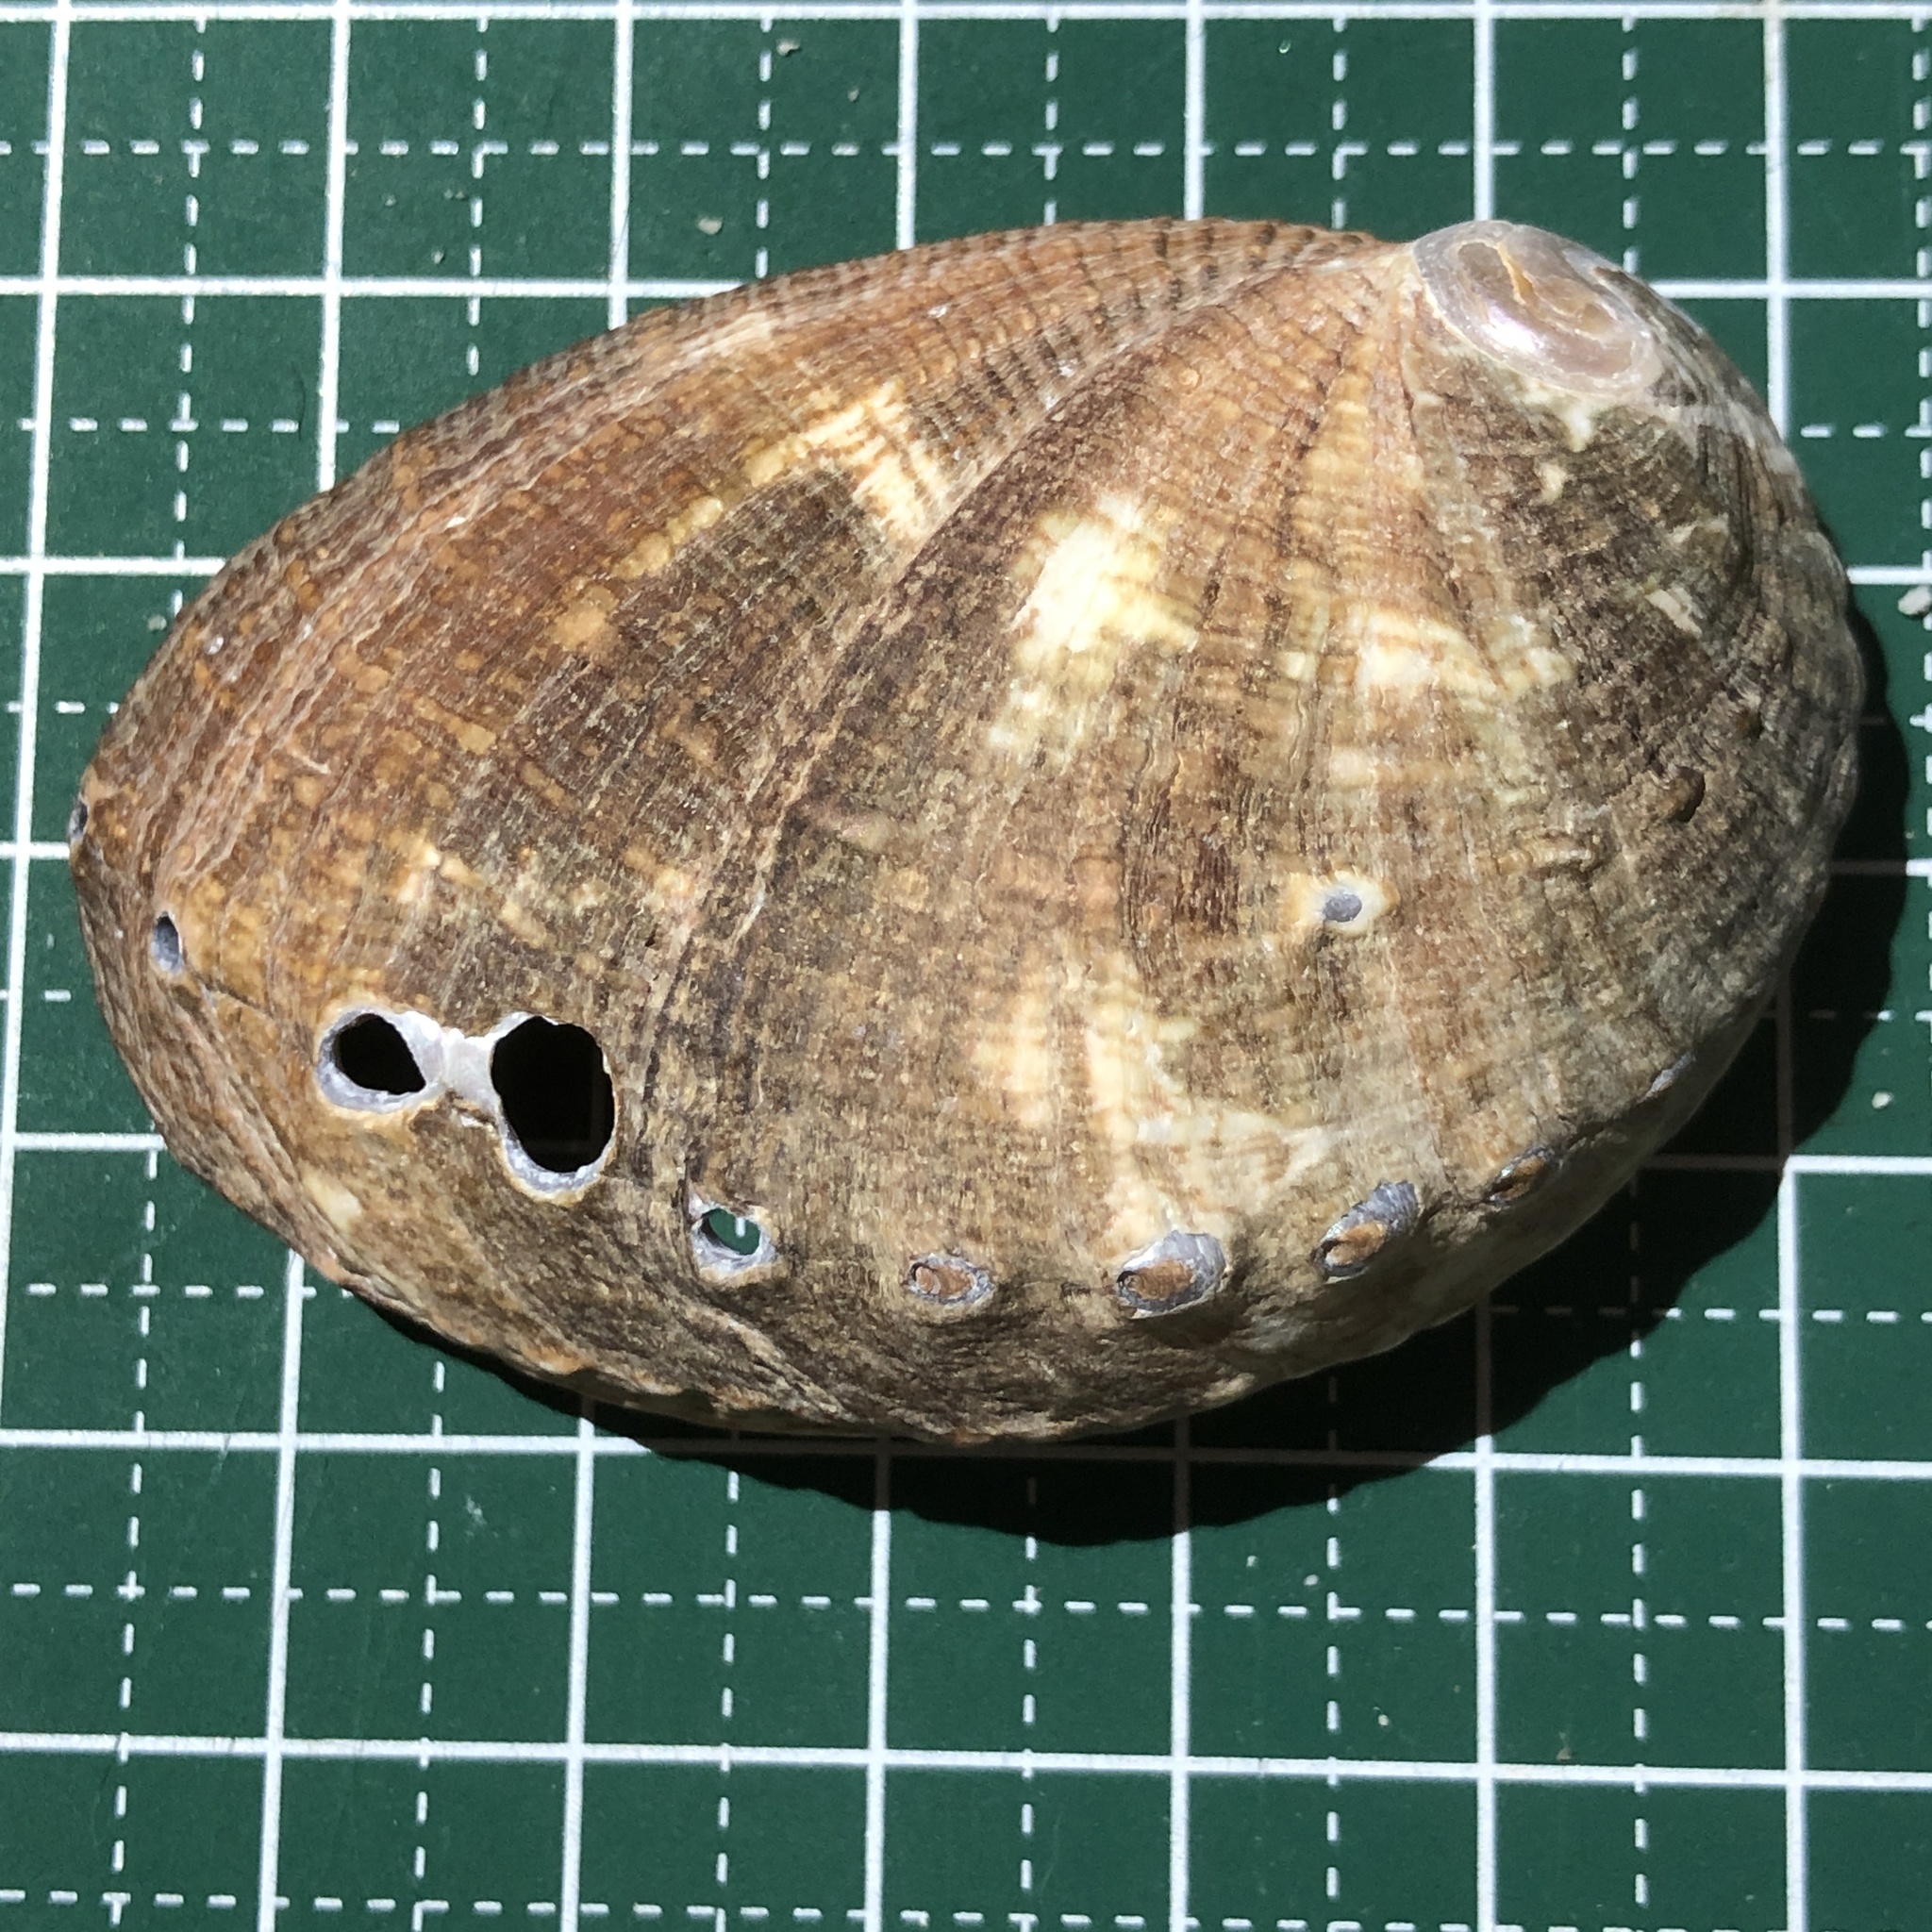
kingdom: Animalia
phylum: Mollusca
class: Gastropoda
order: Lepetellida
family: Haliotidae
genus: Haliotis
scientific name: Haliotis varia
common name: Variable abalone
